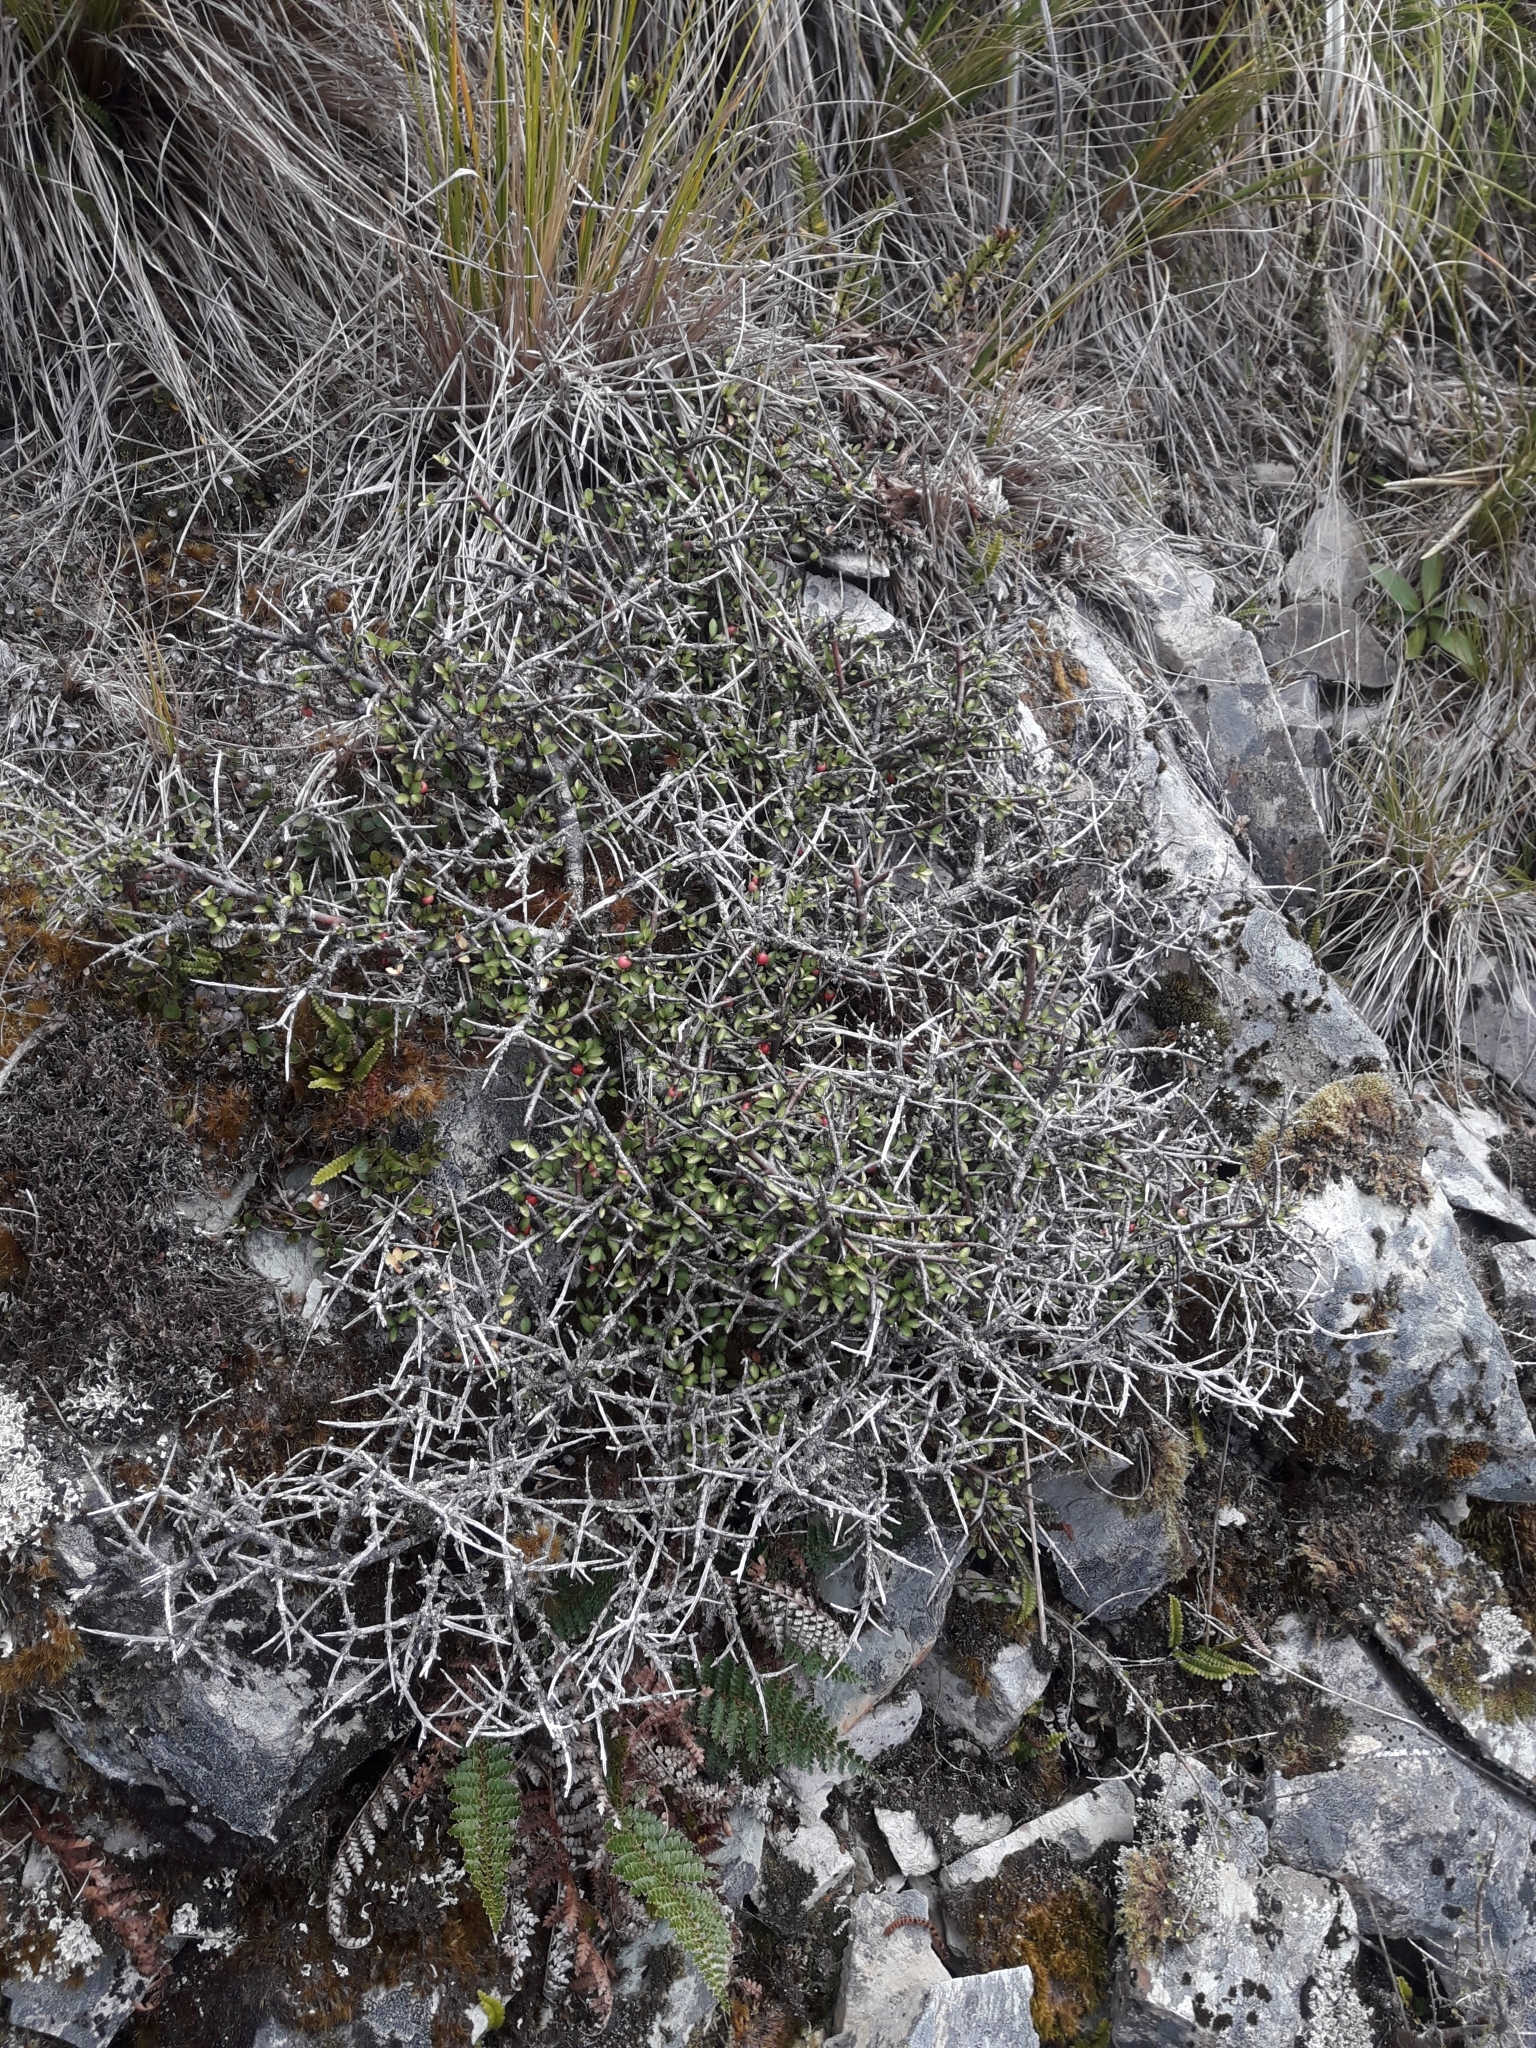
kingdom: Plantae
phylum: Tracheophyta
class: Magnoliopsida
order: Oxalidales
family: Elaeocarpaceae
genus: Aristotelia
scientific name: Aristotelia fruticosa
